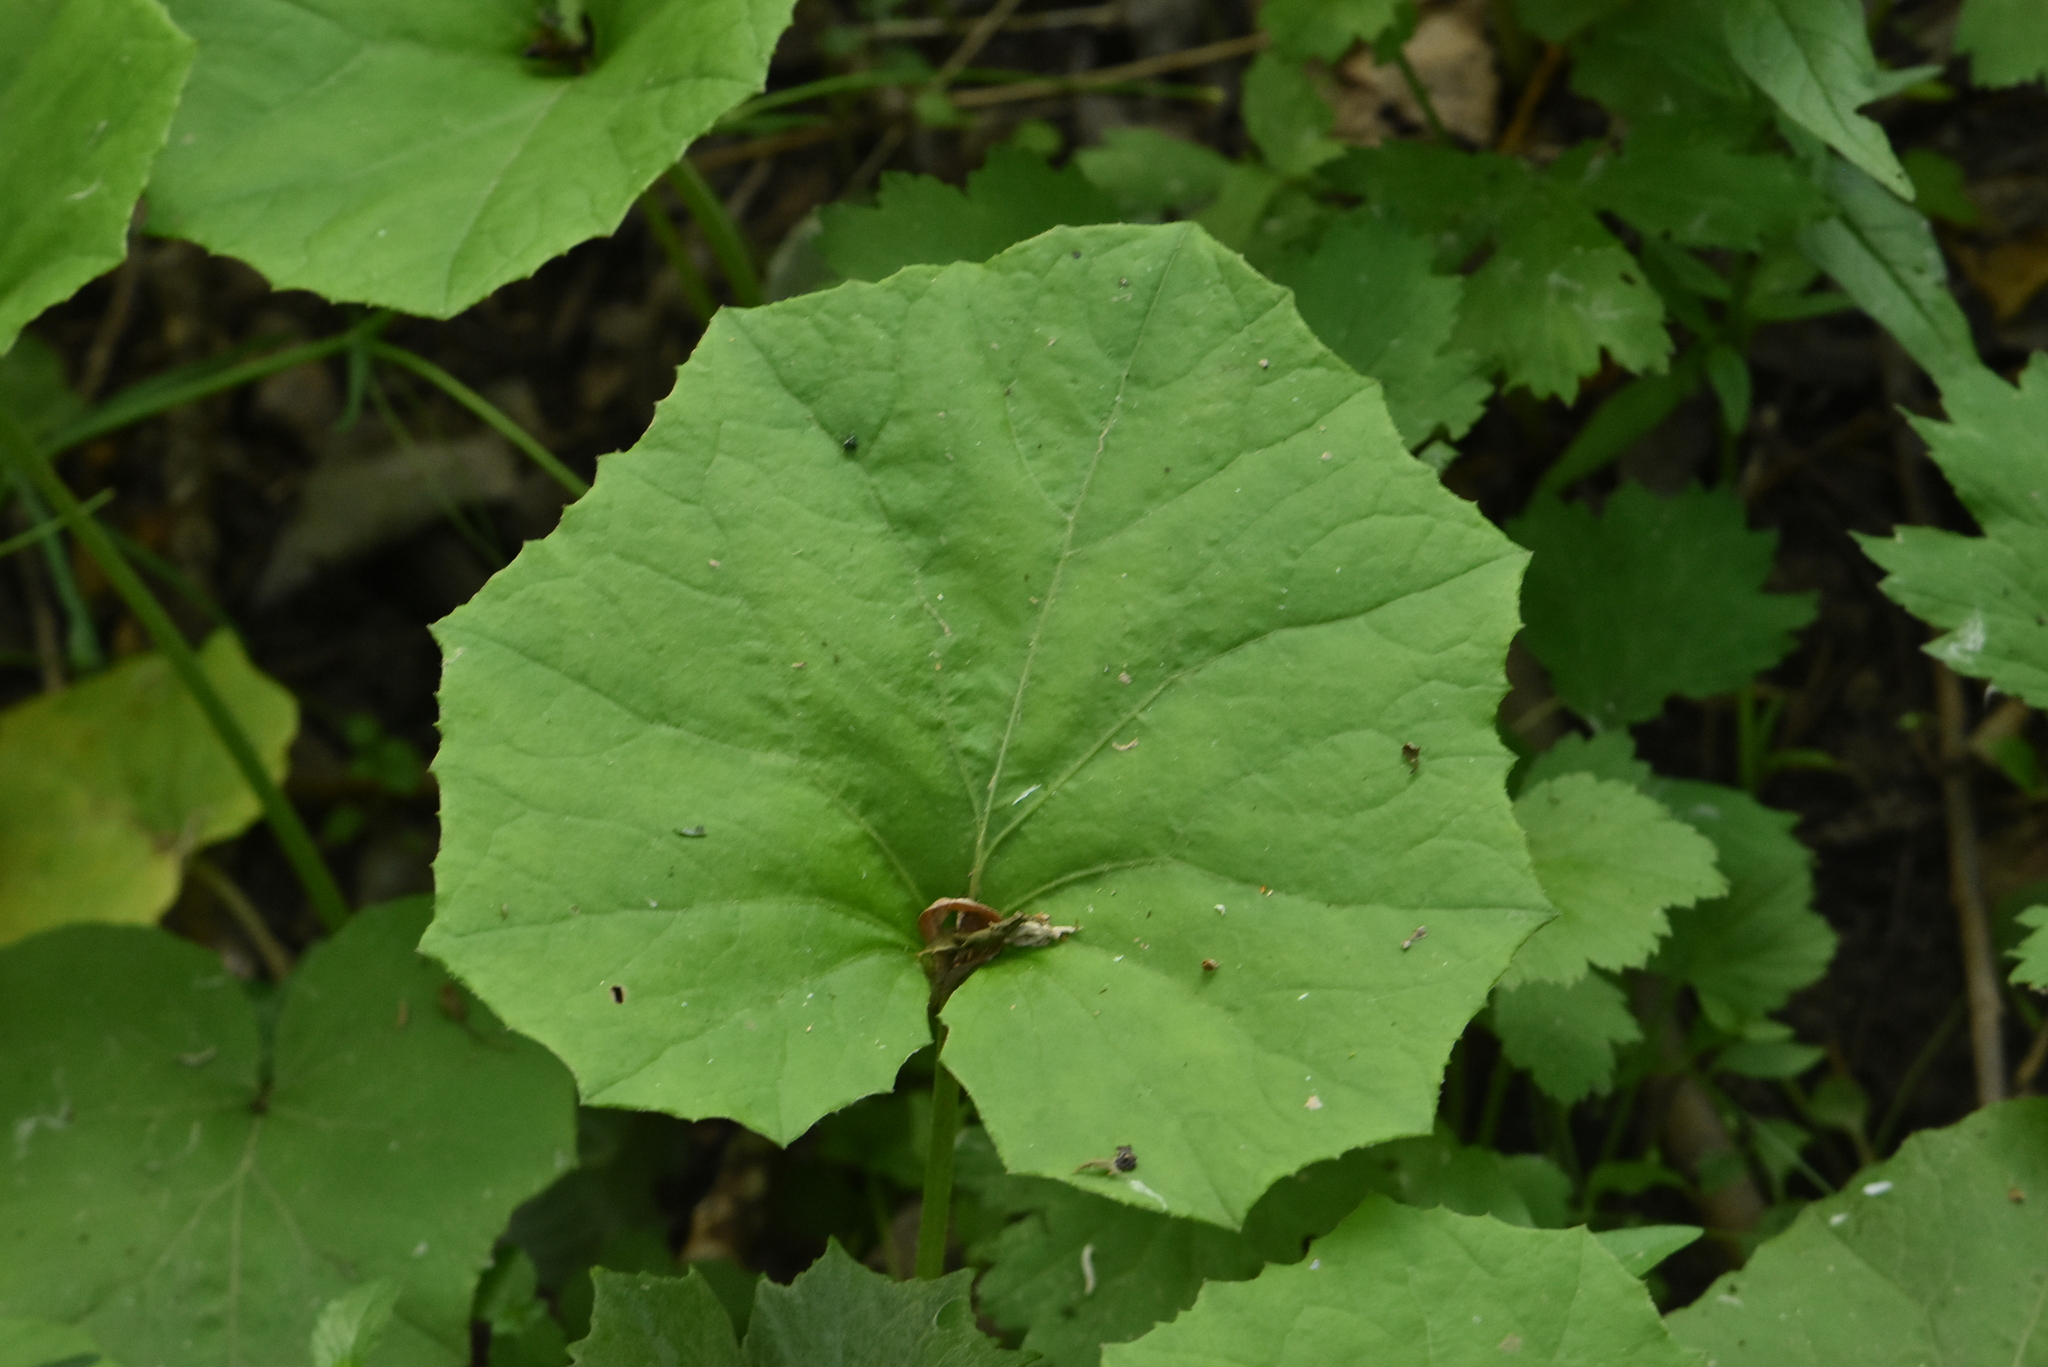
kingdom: Plantae
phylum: Tracheophyta
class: Magnoliopsida
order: Asterales
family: Asteraceae
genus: Tussilago
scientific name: Tussilago farfara
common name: Coltsfoot
